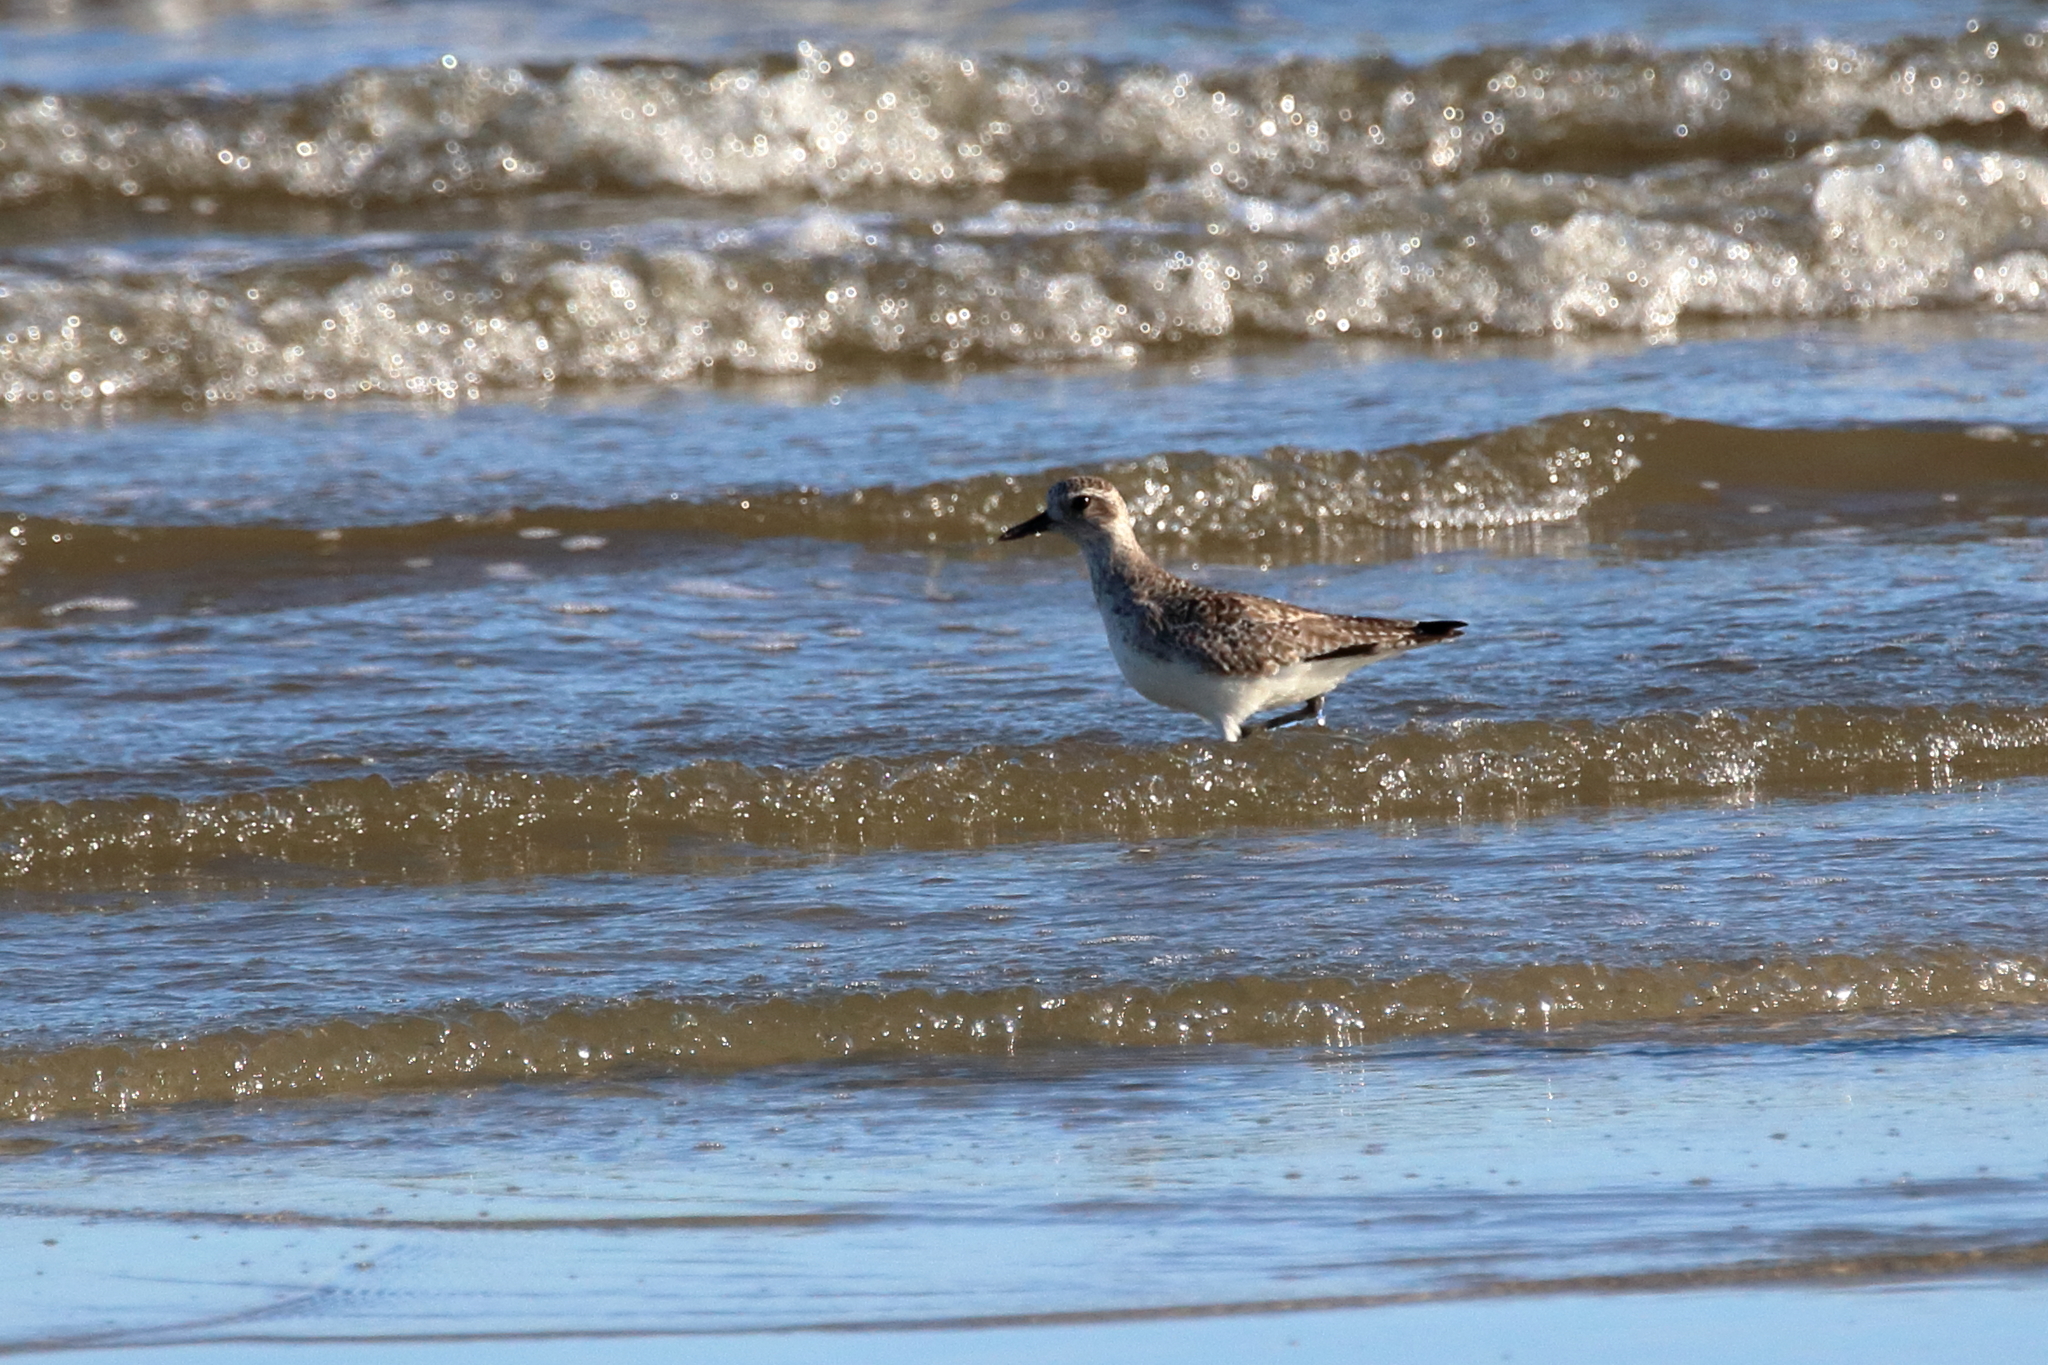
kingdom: Animalia
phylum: Chordata
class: Aves
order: Charadriiformes
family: Charadriidae
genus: Pluvialis
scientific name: Pluvialis squatarola
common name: Grey plover
